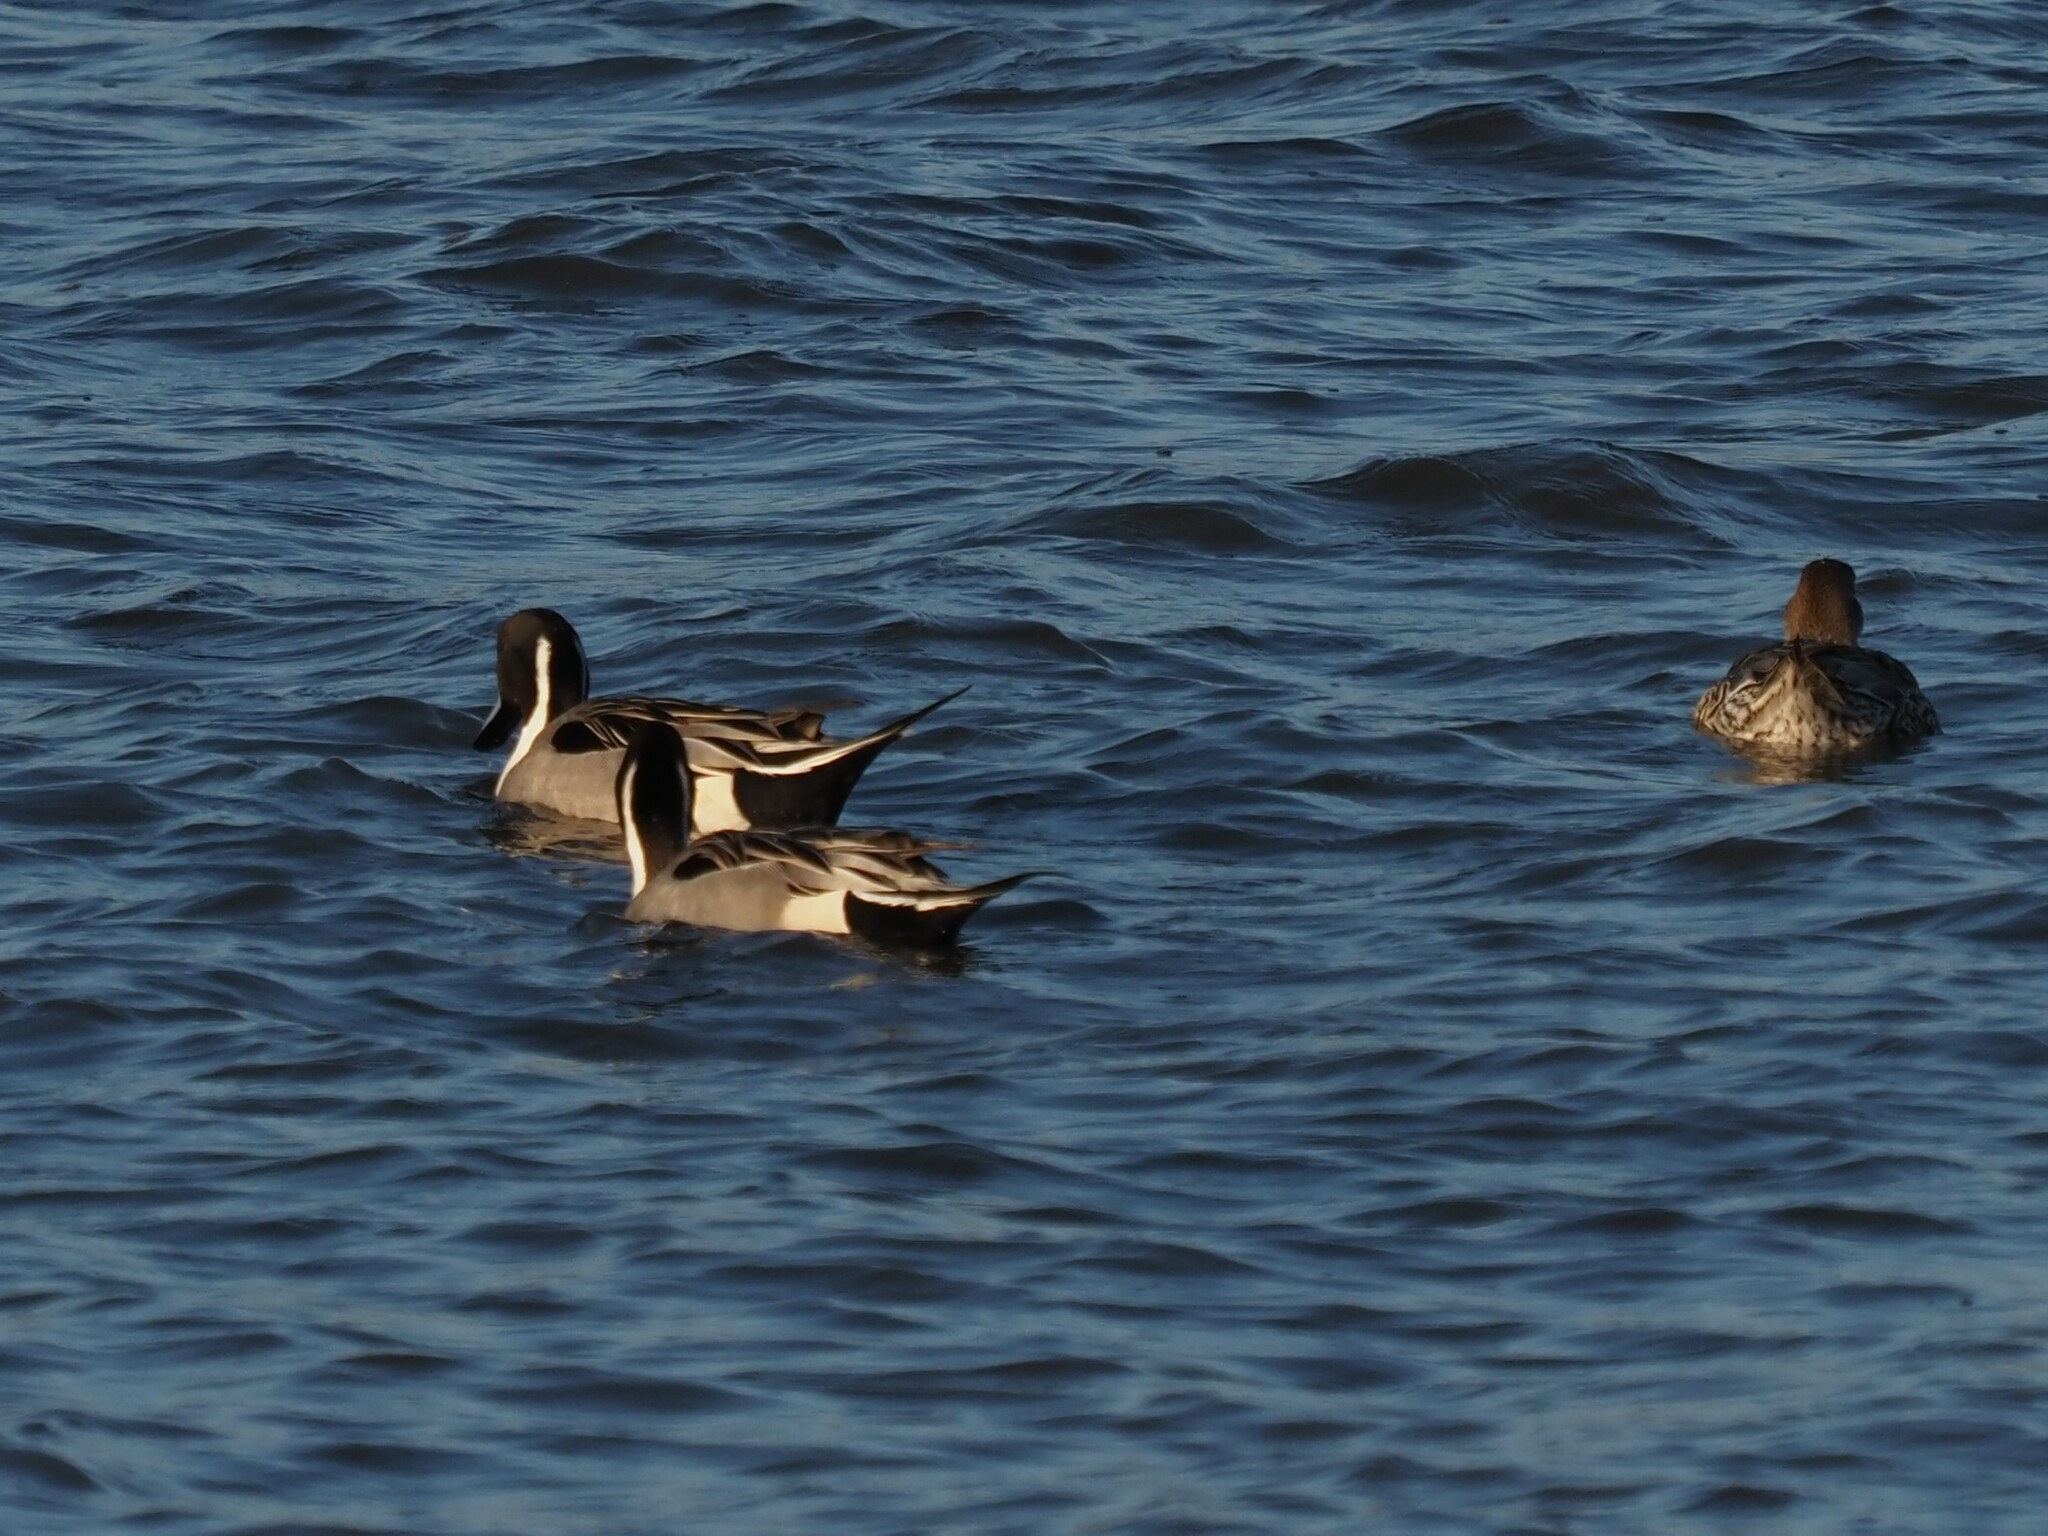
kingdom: Animalia
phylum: Chordata
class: Aves
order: Anseriformes
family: Anatidae
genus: Anas
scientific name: Anas acuta
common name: Northern pintail
